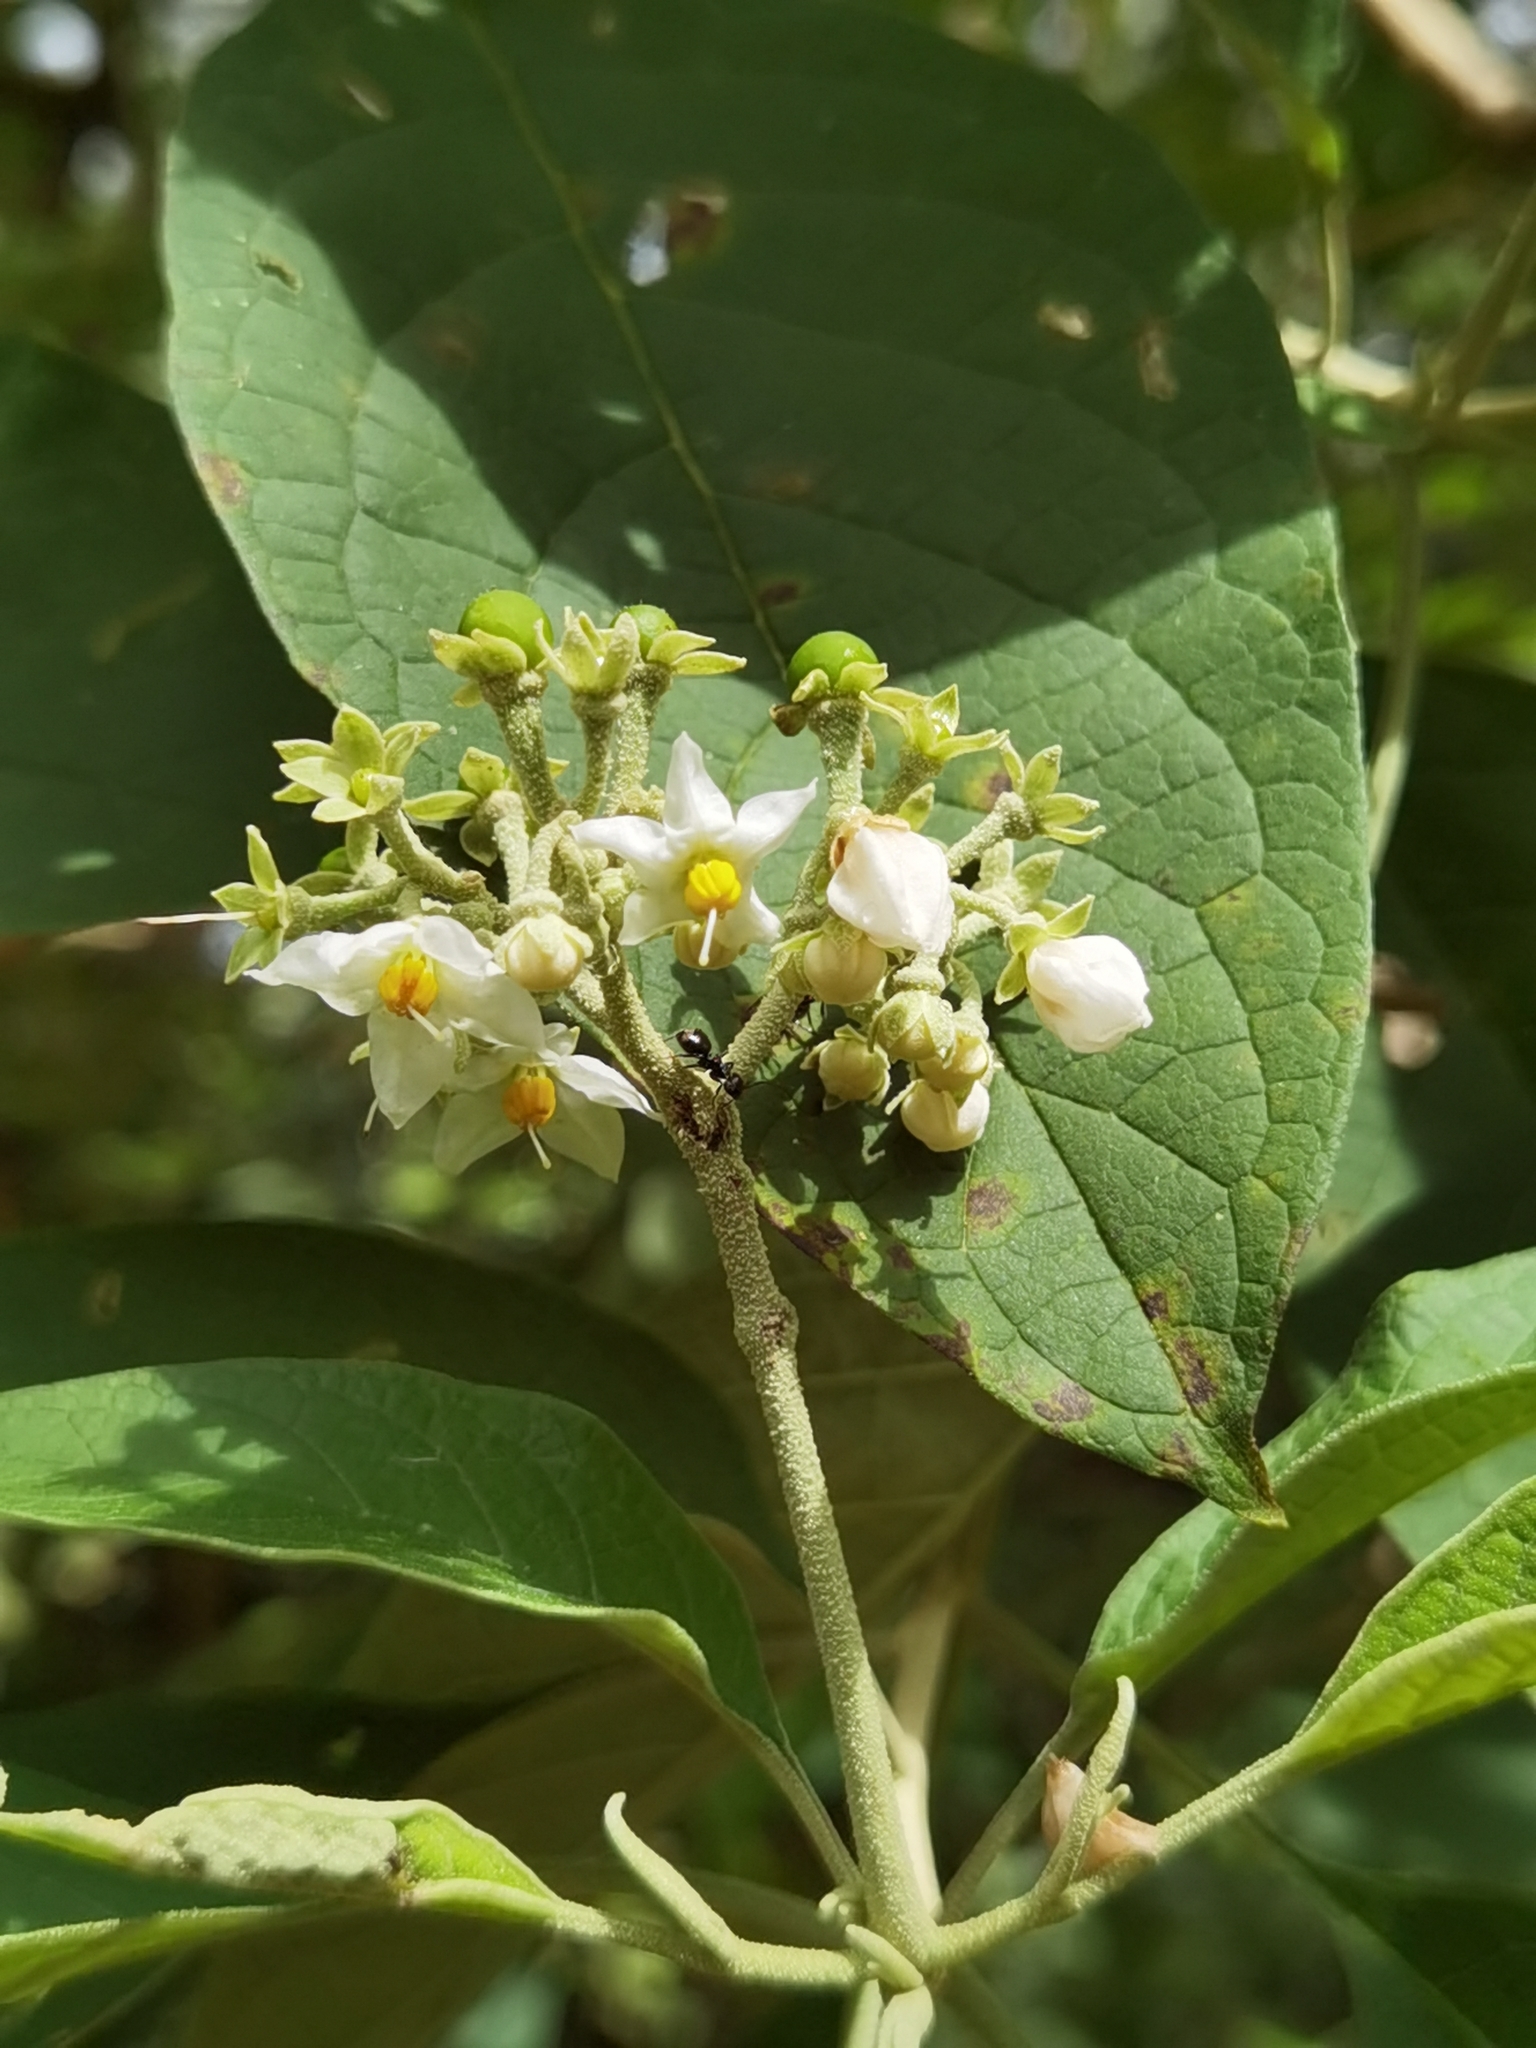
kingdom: Plantae
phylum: Tracheophyta
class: Magnoliopsida
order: Solanales
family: Solanaceae
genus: Solanum
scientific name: Solanum hazenii
